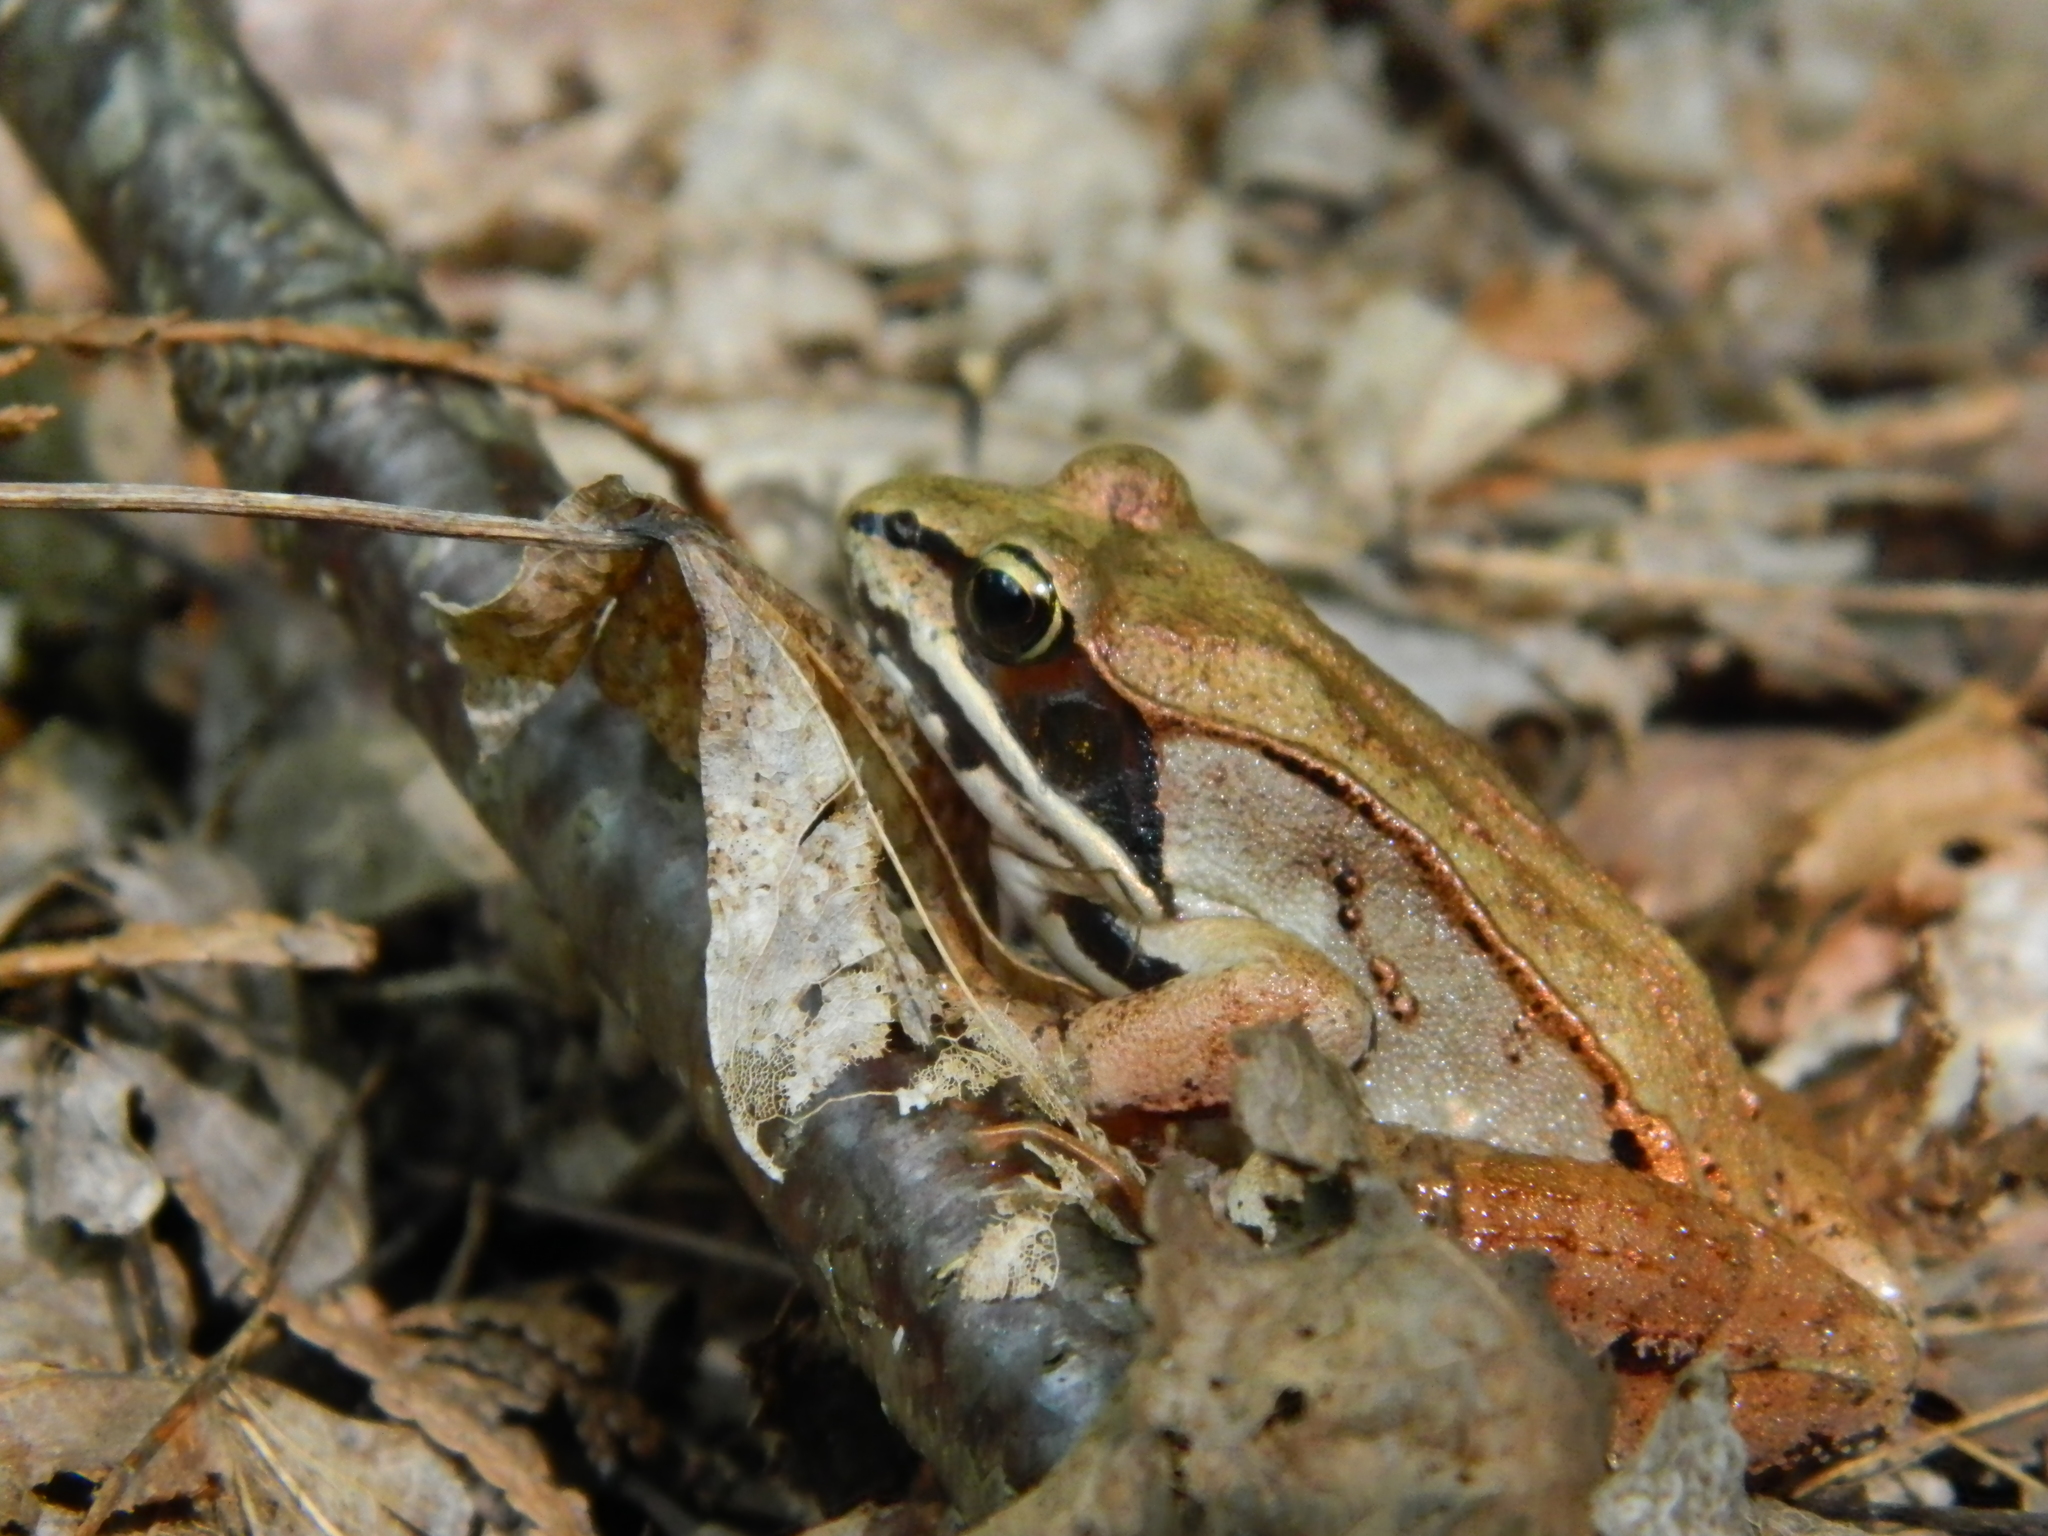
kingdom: Animalia
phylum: Chordata
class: Amphibia
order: Anura
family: Ranidae
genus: Lithobates
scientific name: Lithobates sylvaticus
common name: Wood frog
